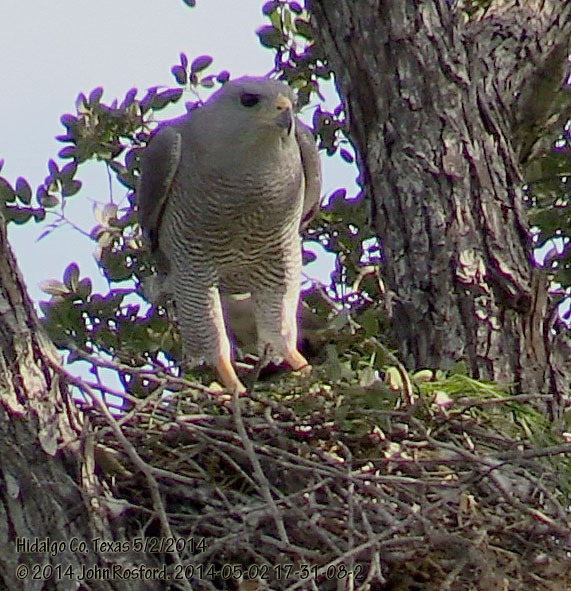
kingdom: Animalia
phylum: Chordata
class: Aves
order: Accipitriformes
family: Accipitridae
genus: Buteo
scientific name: Buteo nitidus
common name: Grey-lined hawk
